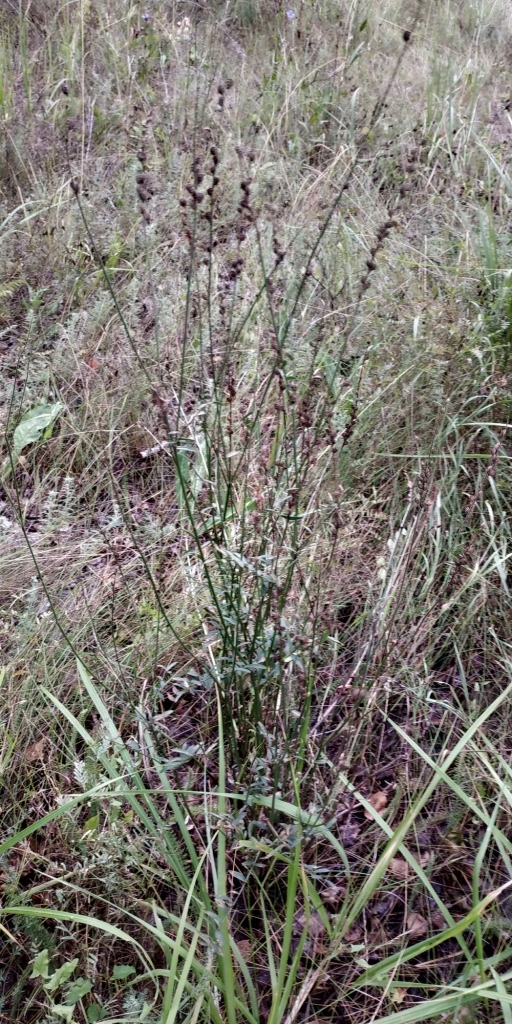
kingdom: Plantae
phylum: Tracheophyta
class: Magnoliopsida
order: Fabales
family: Fabaceae
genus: Onobrychis
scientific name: Onobrychis viciifolia
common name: Sainfoin
